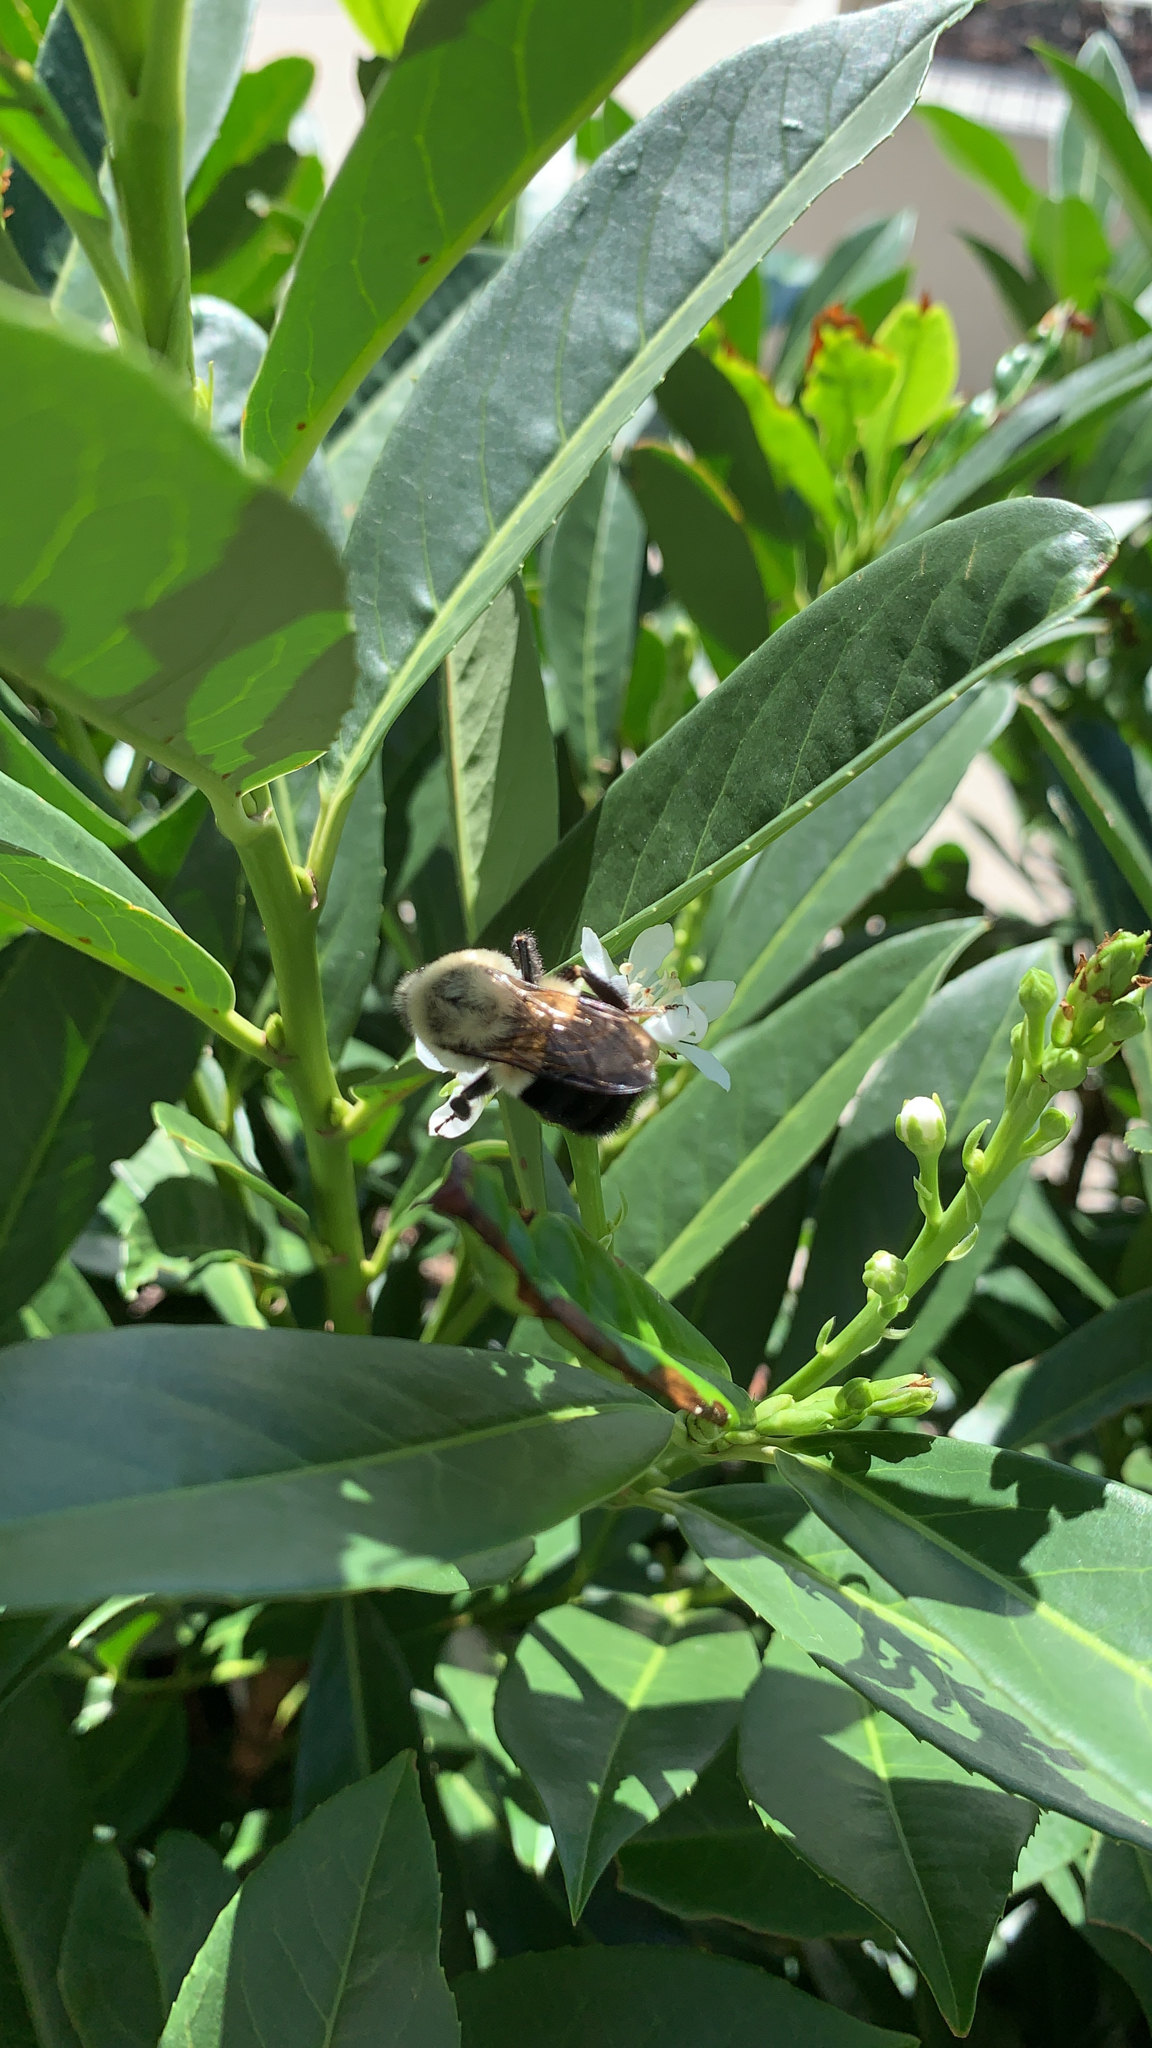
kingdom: Animalia
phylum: Arthropoda
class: Insecta
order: Hymenoptera
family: Apidae
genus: Bombus
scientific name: Bombus impatiens
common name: Common eastern bumble bee
